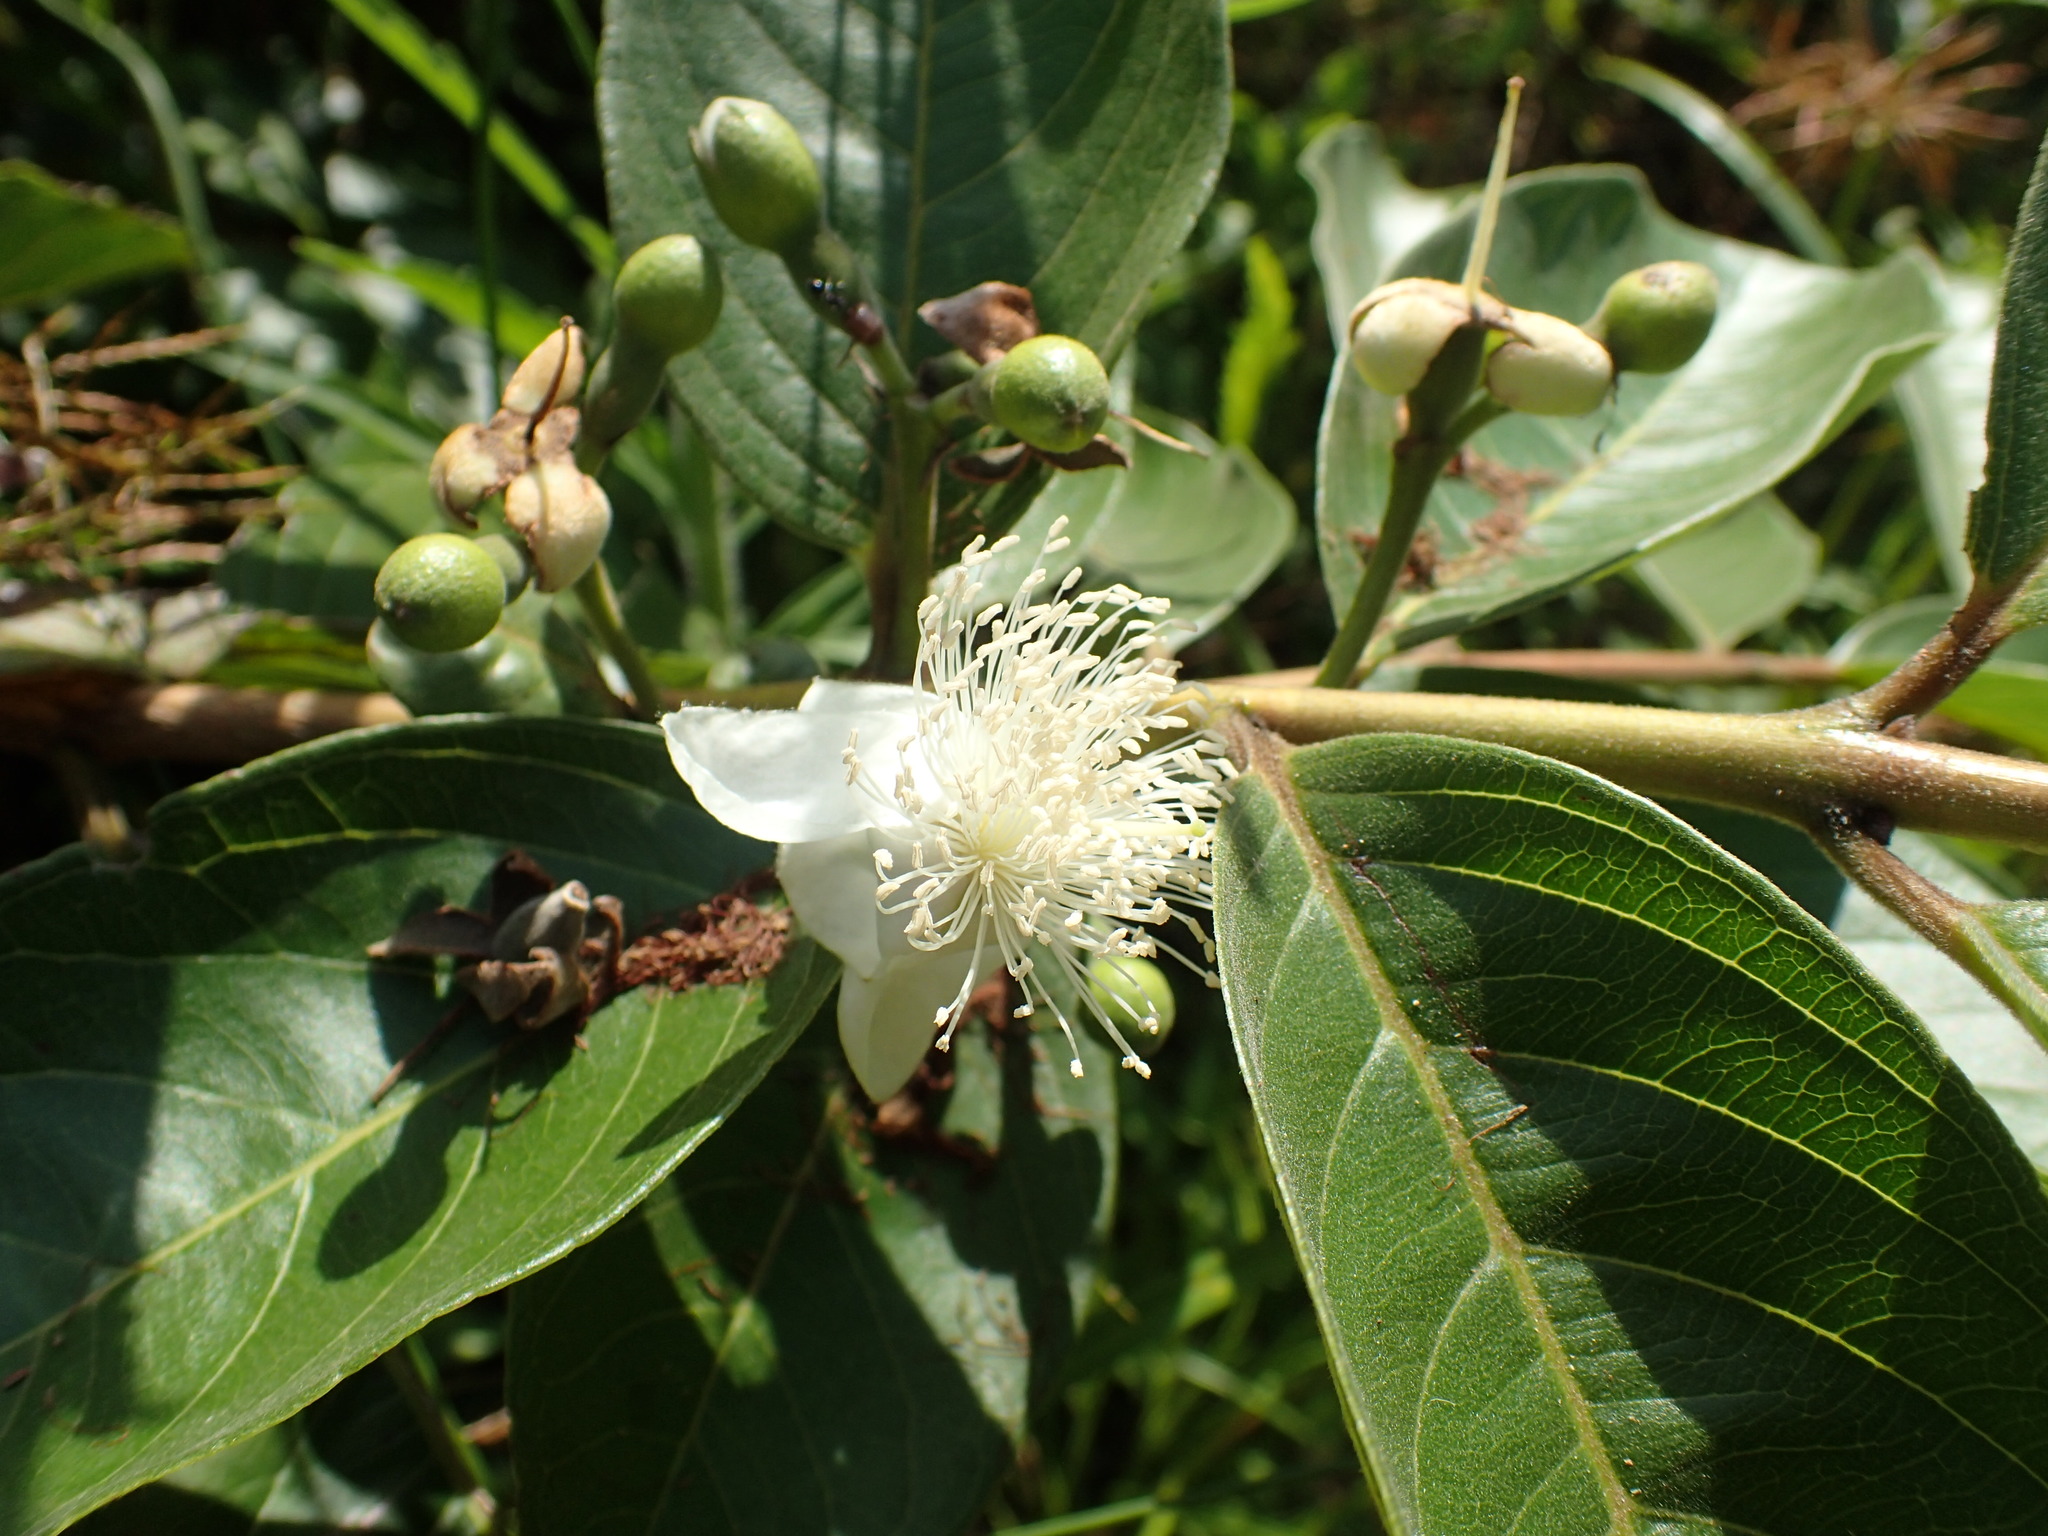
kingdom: Plantae
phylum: Tracheophyta
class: Magnoliopsida
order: Myrtales
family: Myrtaceae
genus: Psidium
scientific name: Psidium guajava
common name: Guava
